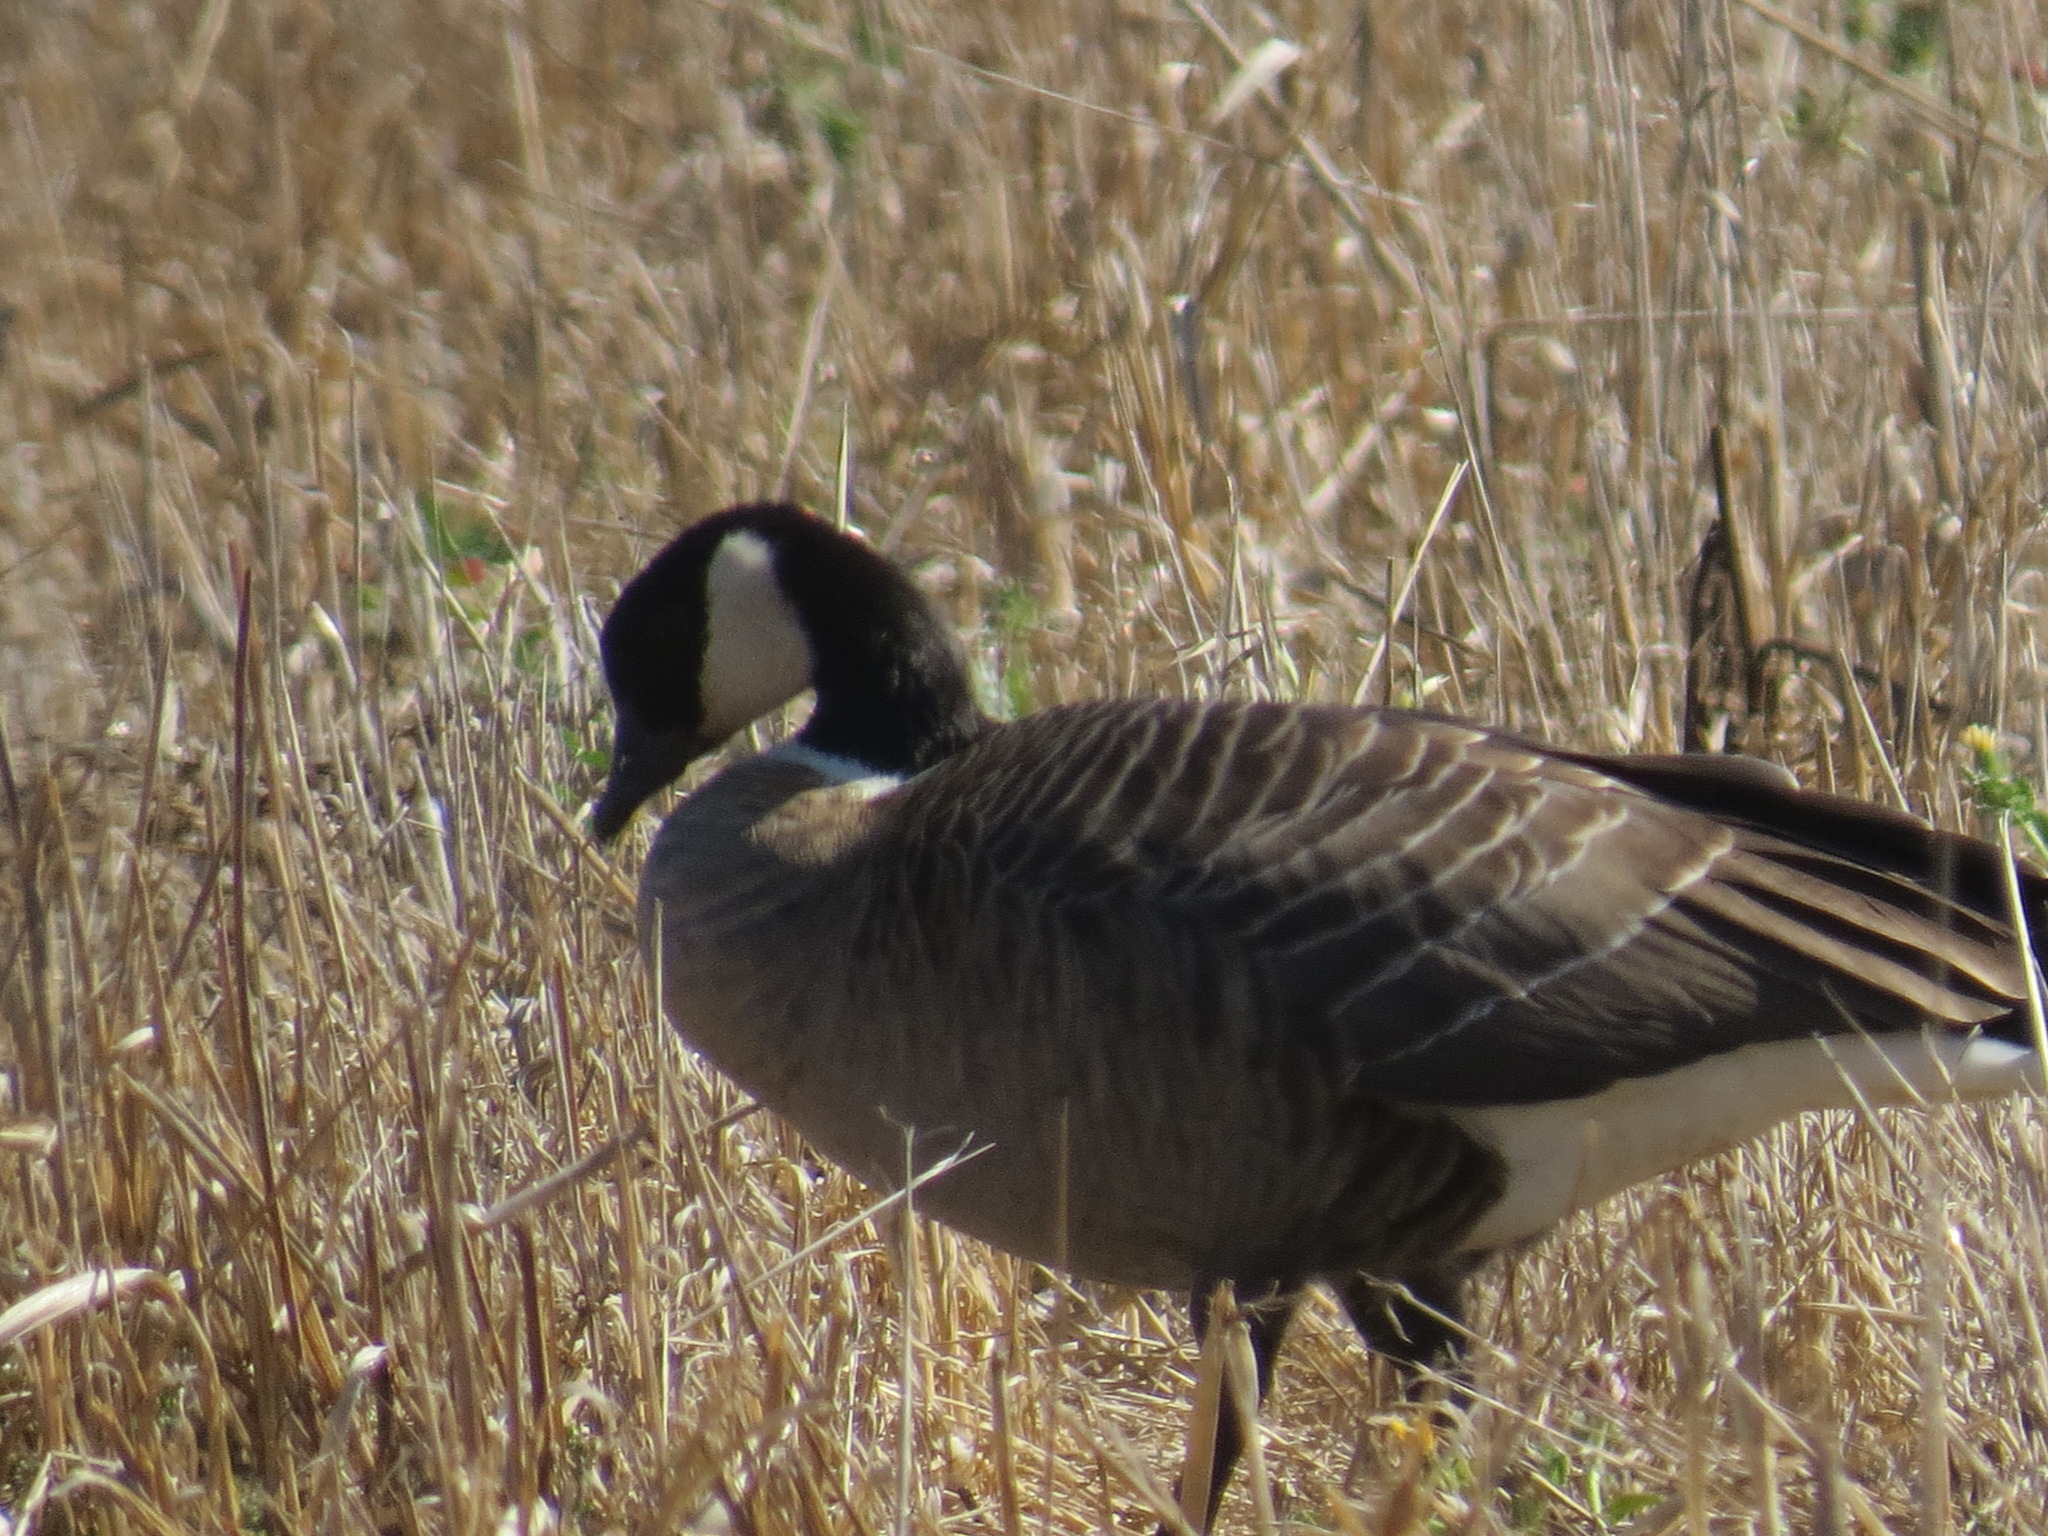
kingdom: Animalia
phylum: Chordata
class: Aves
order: Anseriformes
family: Anatidae
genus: Branta
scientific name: Branta hutchinsii
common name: Cackling goose
